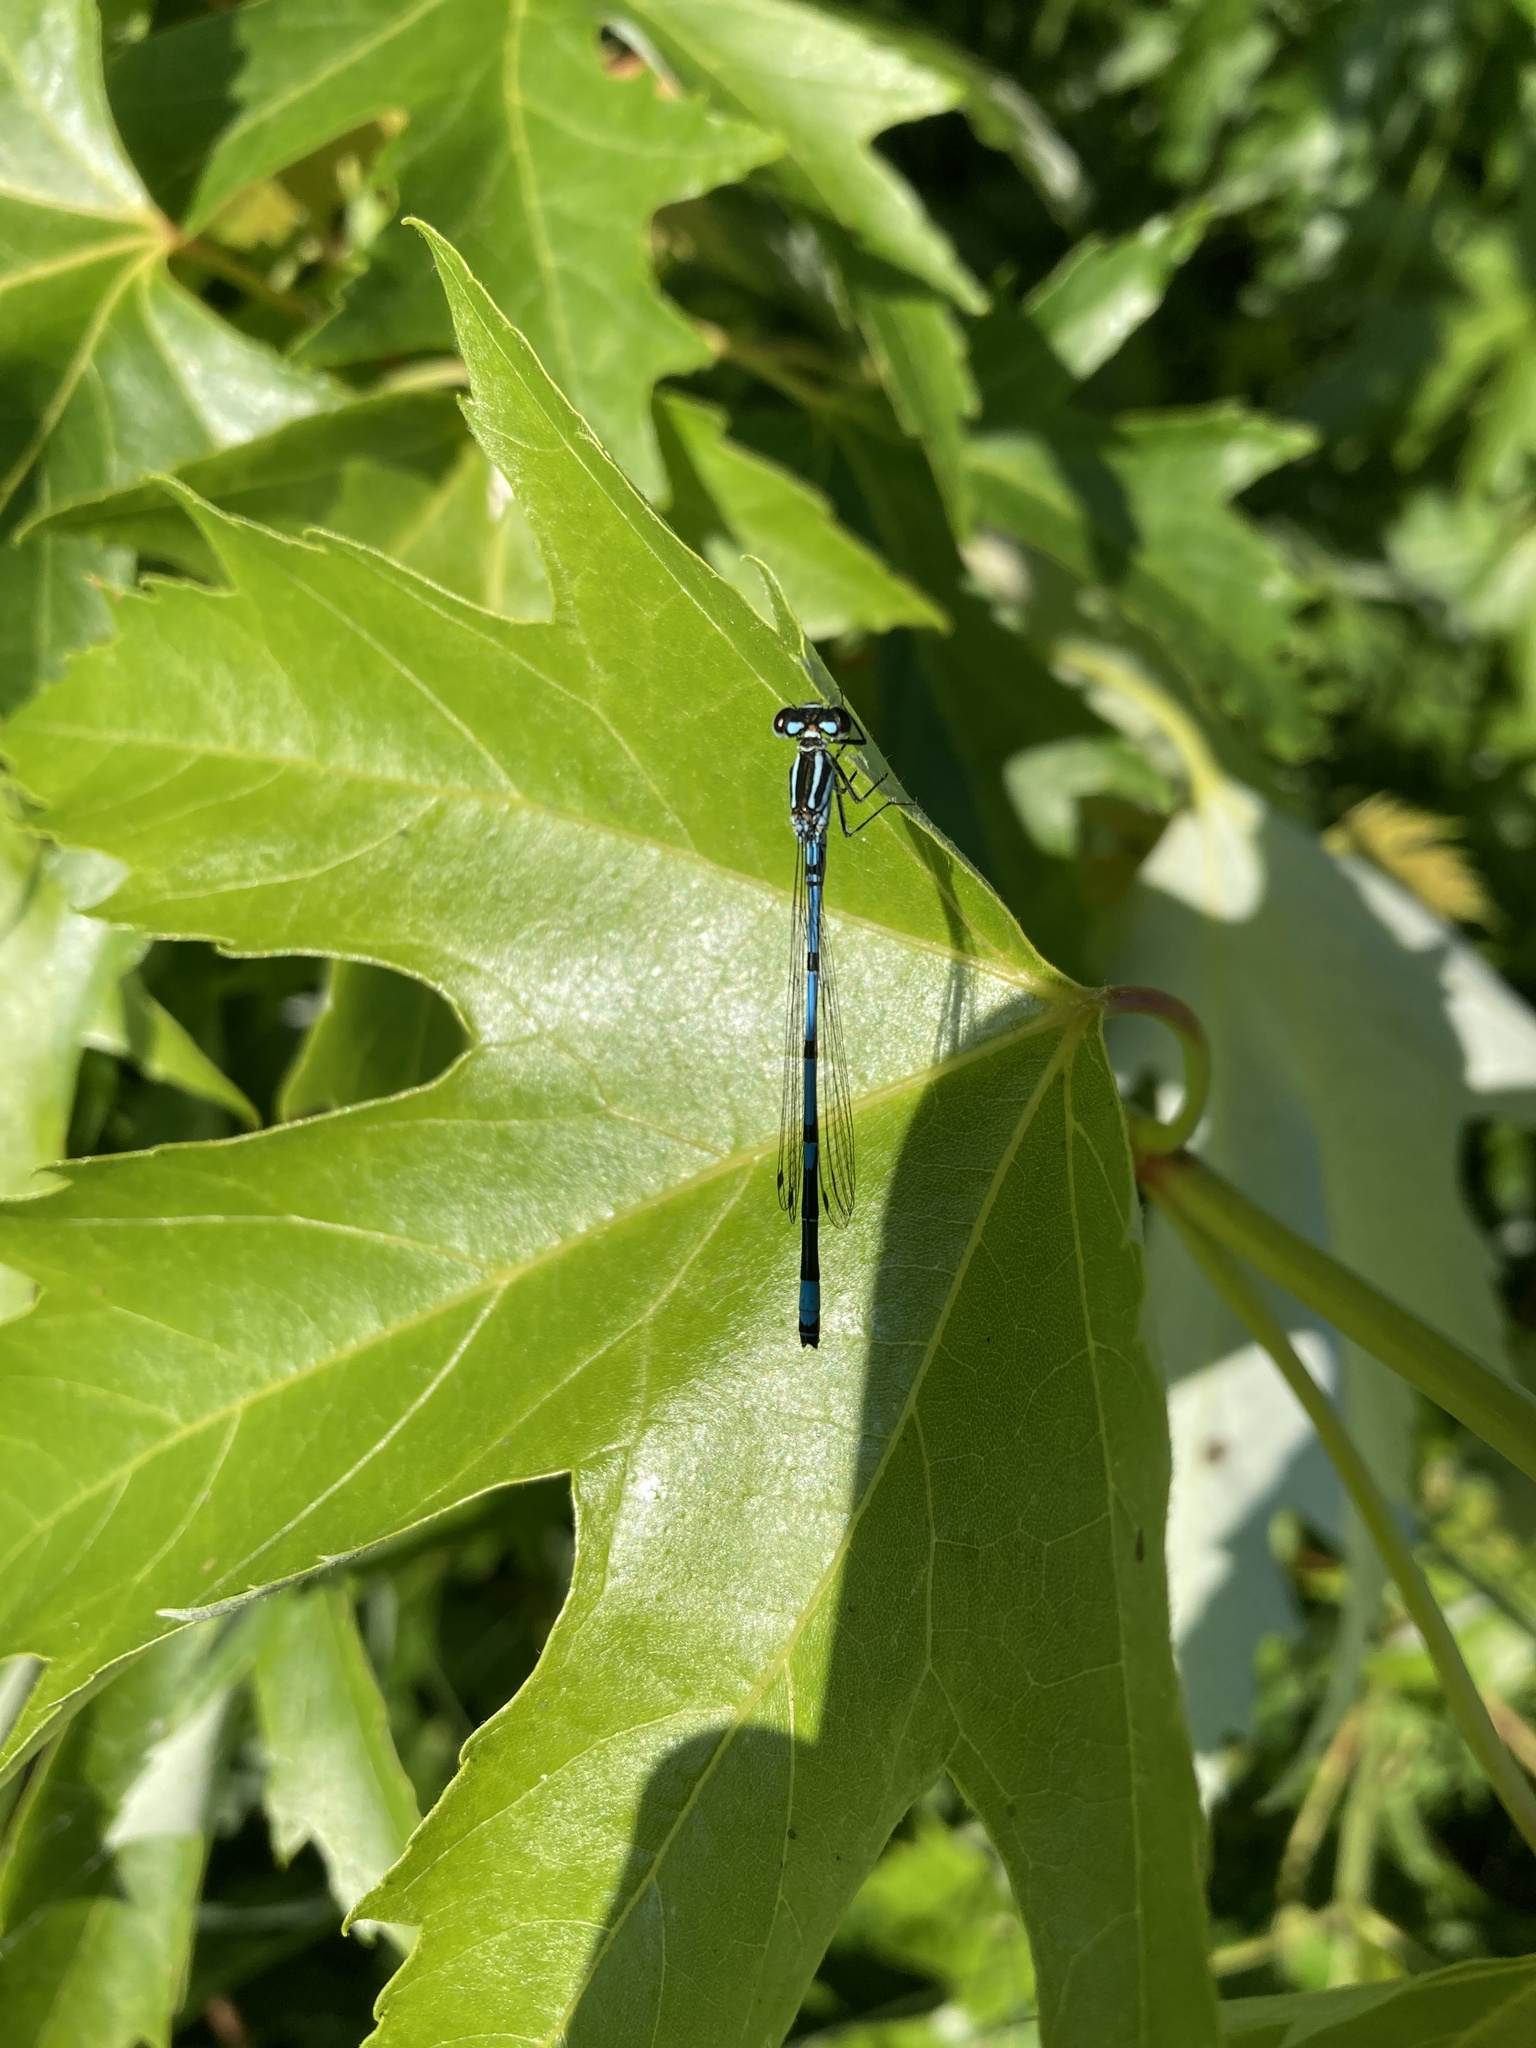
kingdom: Animalia
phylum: Arthropoda
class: Insecta
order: Odonata
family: Coenagrionidae
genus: Coenagrion
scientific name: Coenagrion puella
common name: Azure damselfly
